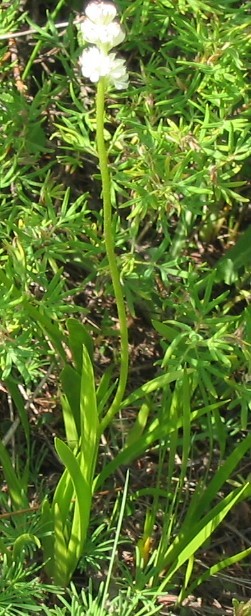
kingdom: Plantae
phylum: Tracheophyta
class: Liliopsida
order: Alismatales
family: Tofieldiaceae
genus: Triantha
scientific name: Triantha glutinosa
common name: Glutinous tofieldia
